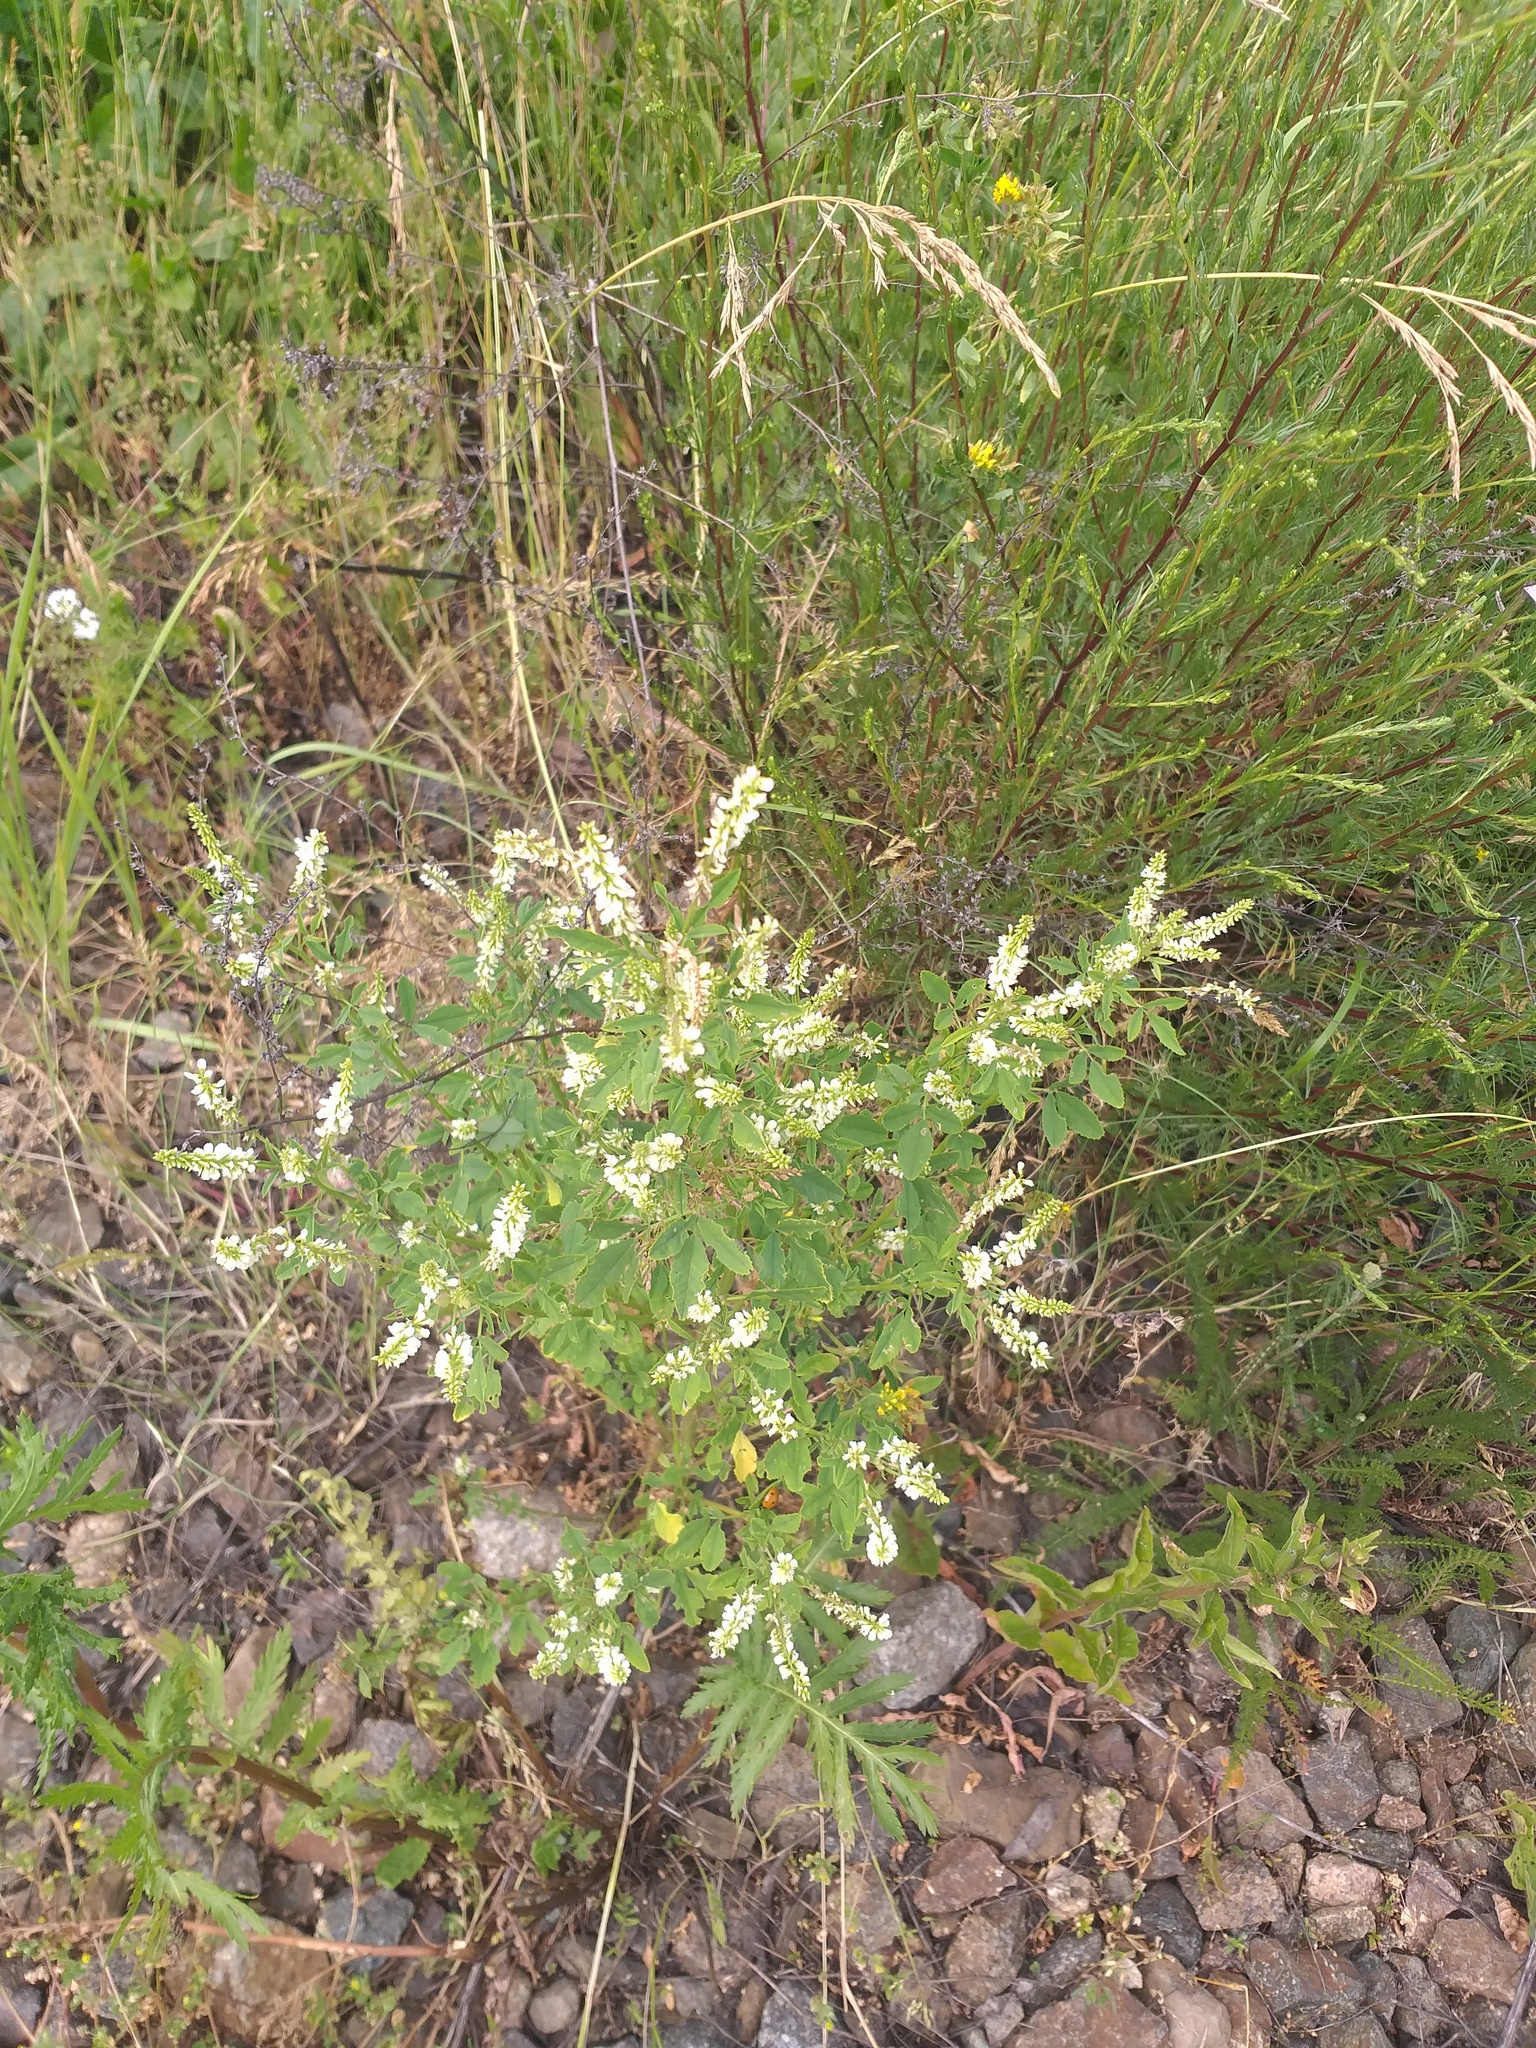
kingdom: Plantae
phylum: Tracheophyta
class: Magnoliopsida
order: Fabales
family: Fabaceae
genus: Melilotus
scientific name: Melilotus albus
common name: White melilot
